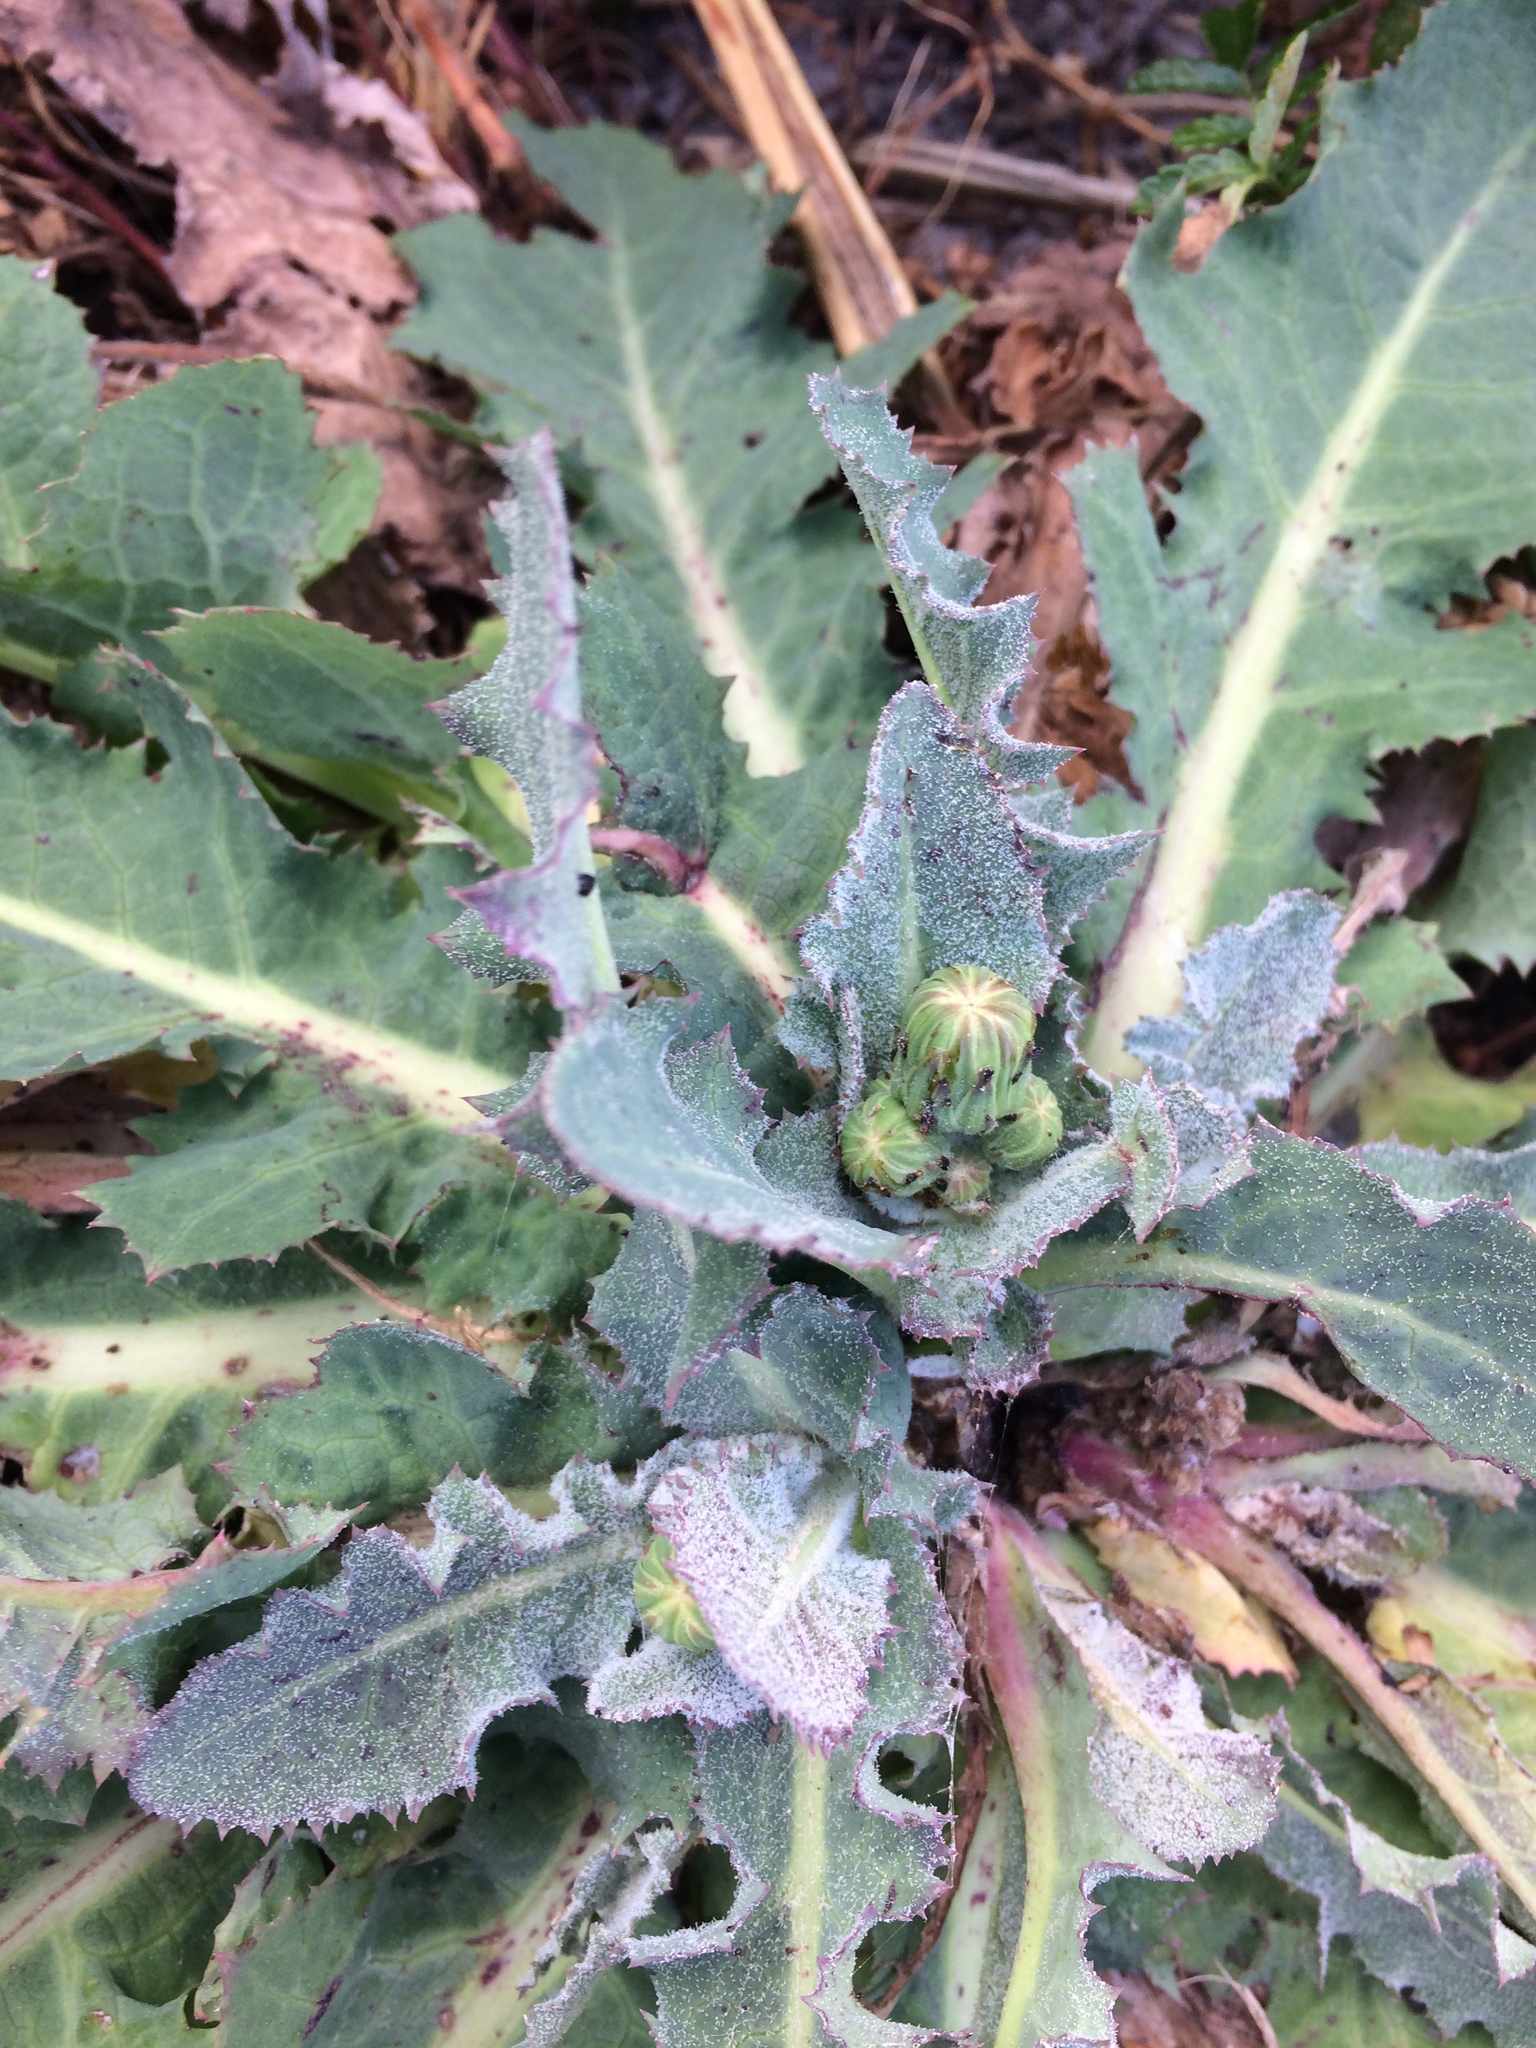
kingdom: Plantae
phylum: Tracheophyta
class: Magnoliopsida
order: Asterales
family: Asteraceae
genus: Sonchus
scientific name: Sonchus kirkii
